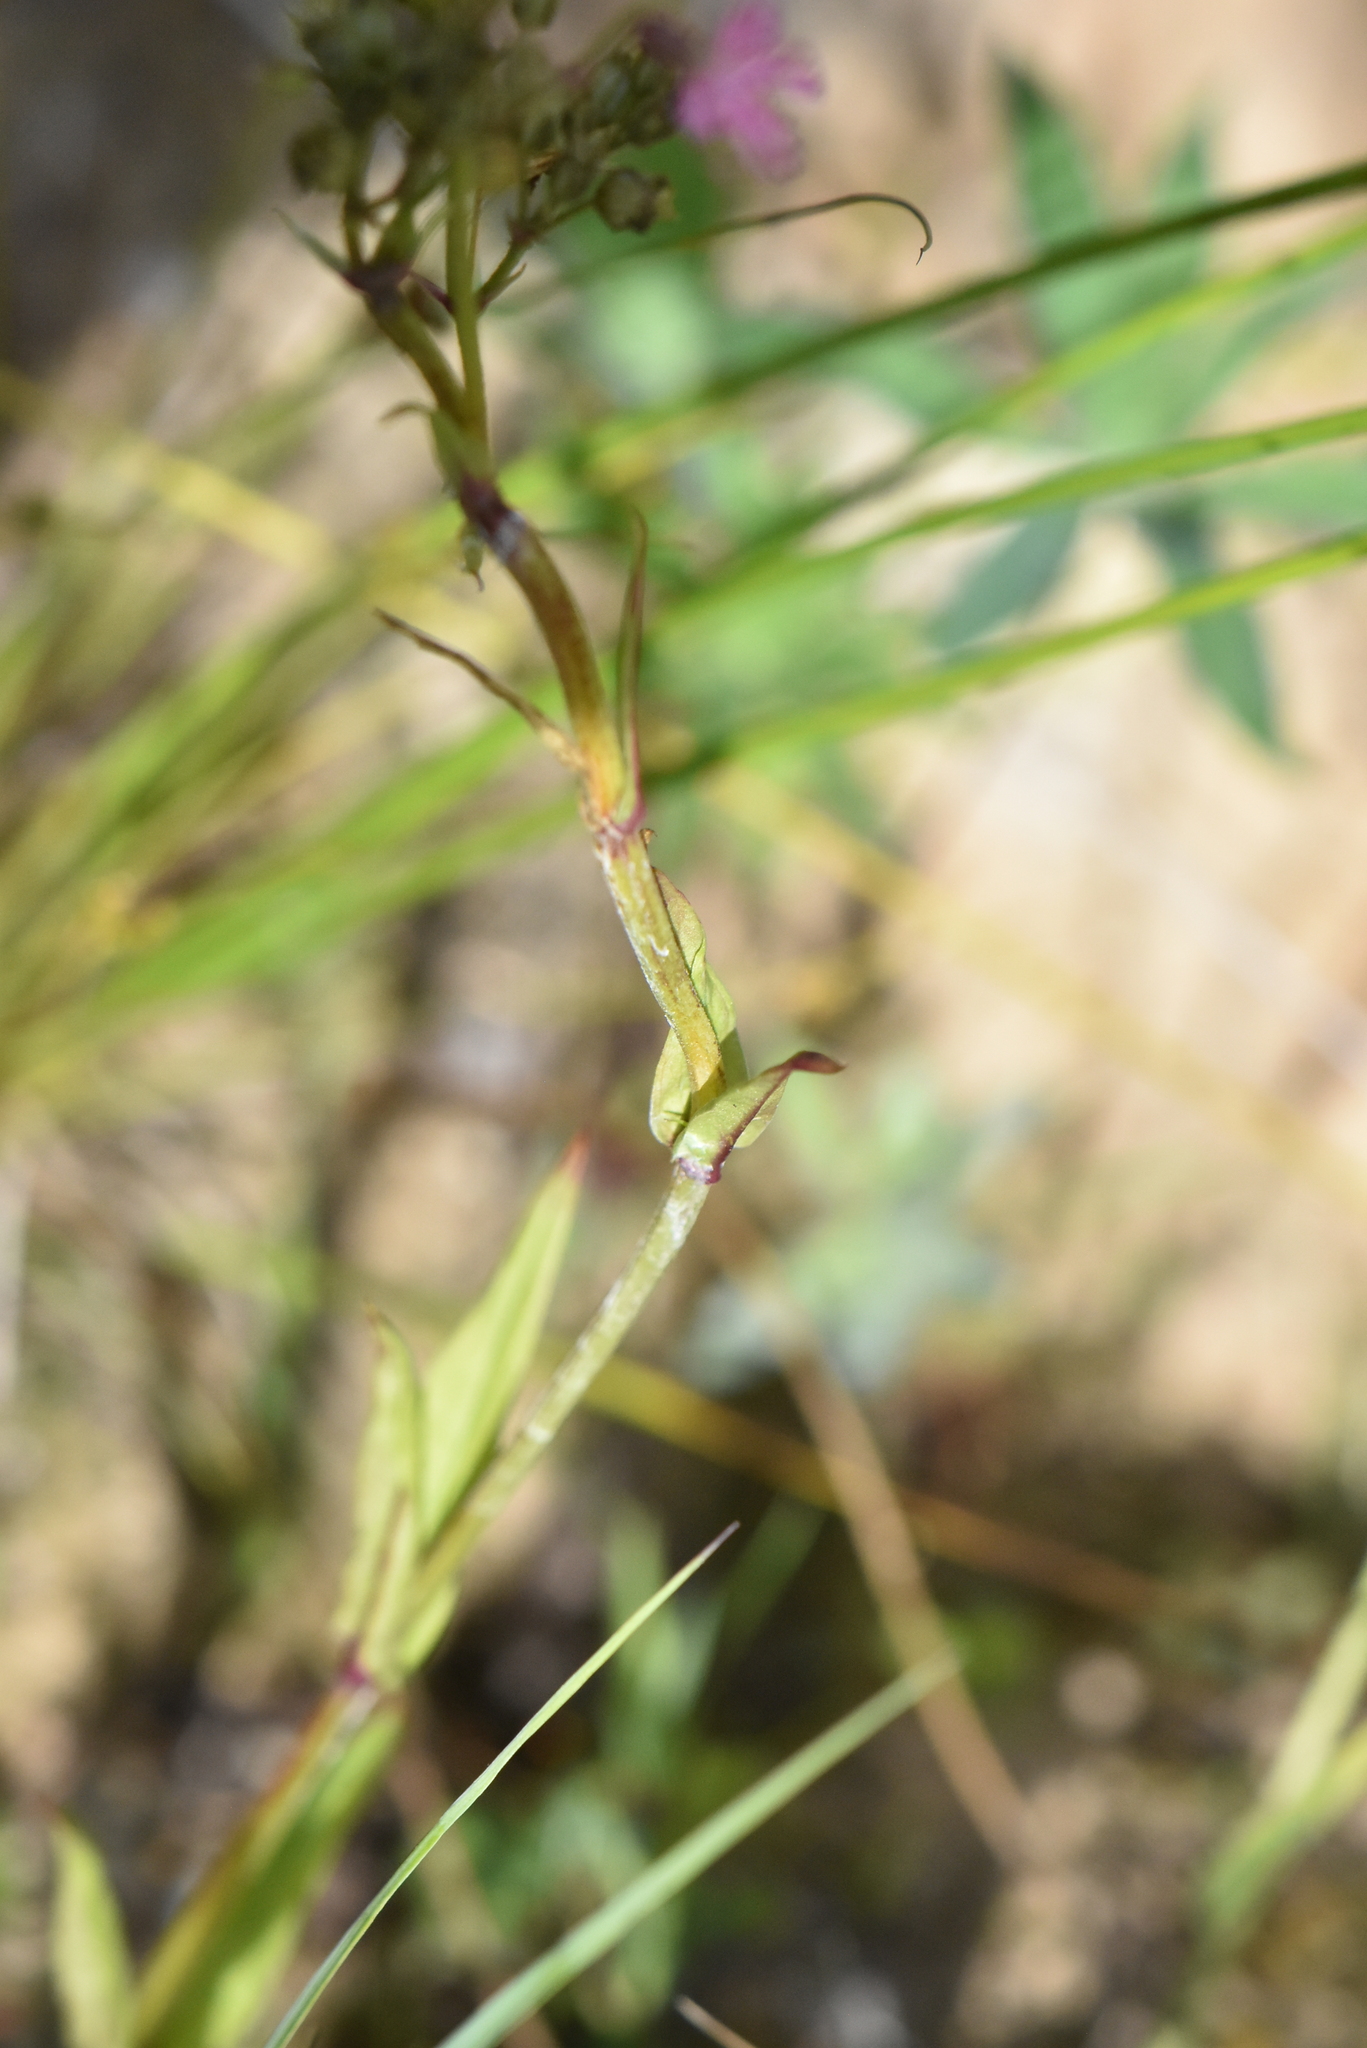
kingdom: Plantae
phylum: Tracheophyta
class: Magnoliopsida
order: Caryophyllales
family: Caryophyllaceae
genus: Viscaria
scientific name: Viscaria vulgaris
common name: Clammy campion
